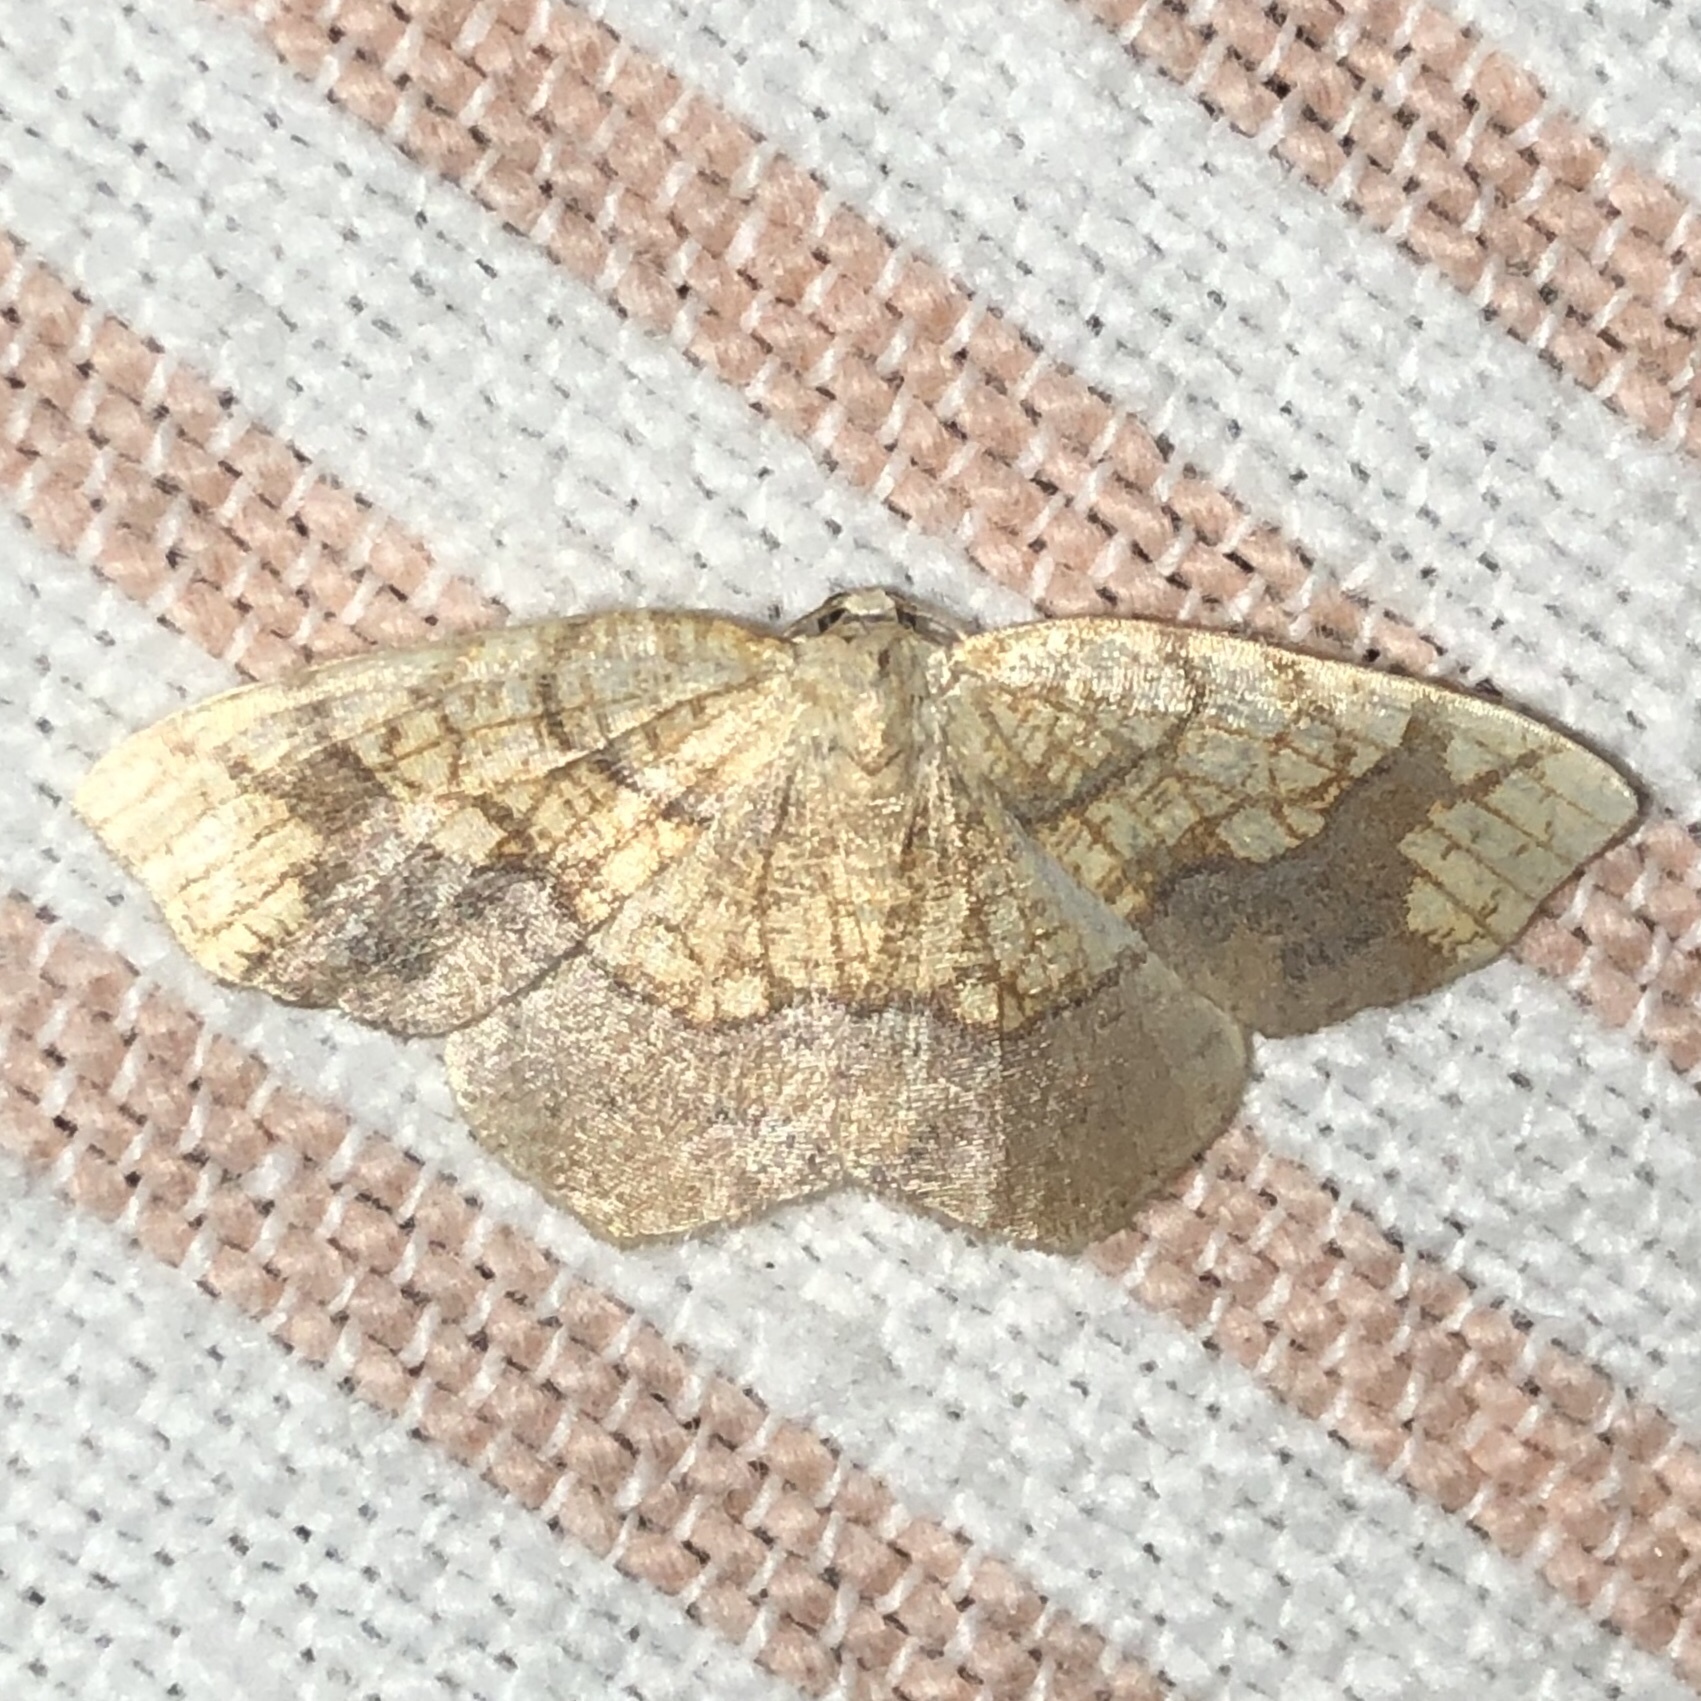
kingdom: Animalia
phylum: Arthropoda
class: Insecta
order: Lepidoptera
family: Geometridae
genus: Nematocampa
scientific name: Nematocampa resistaria
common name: Horned spanworm moth
